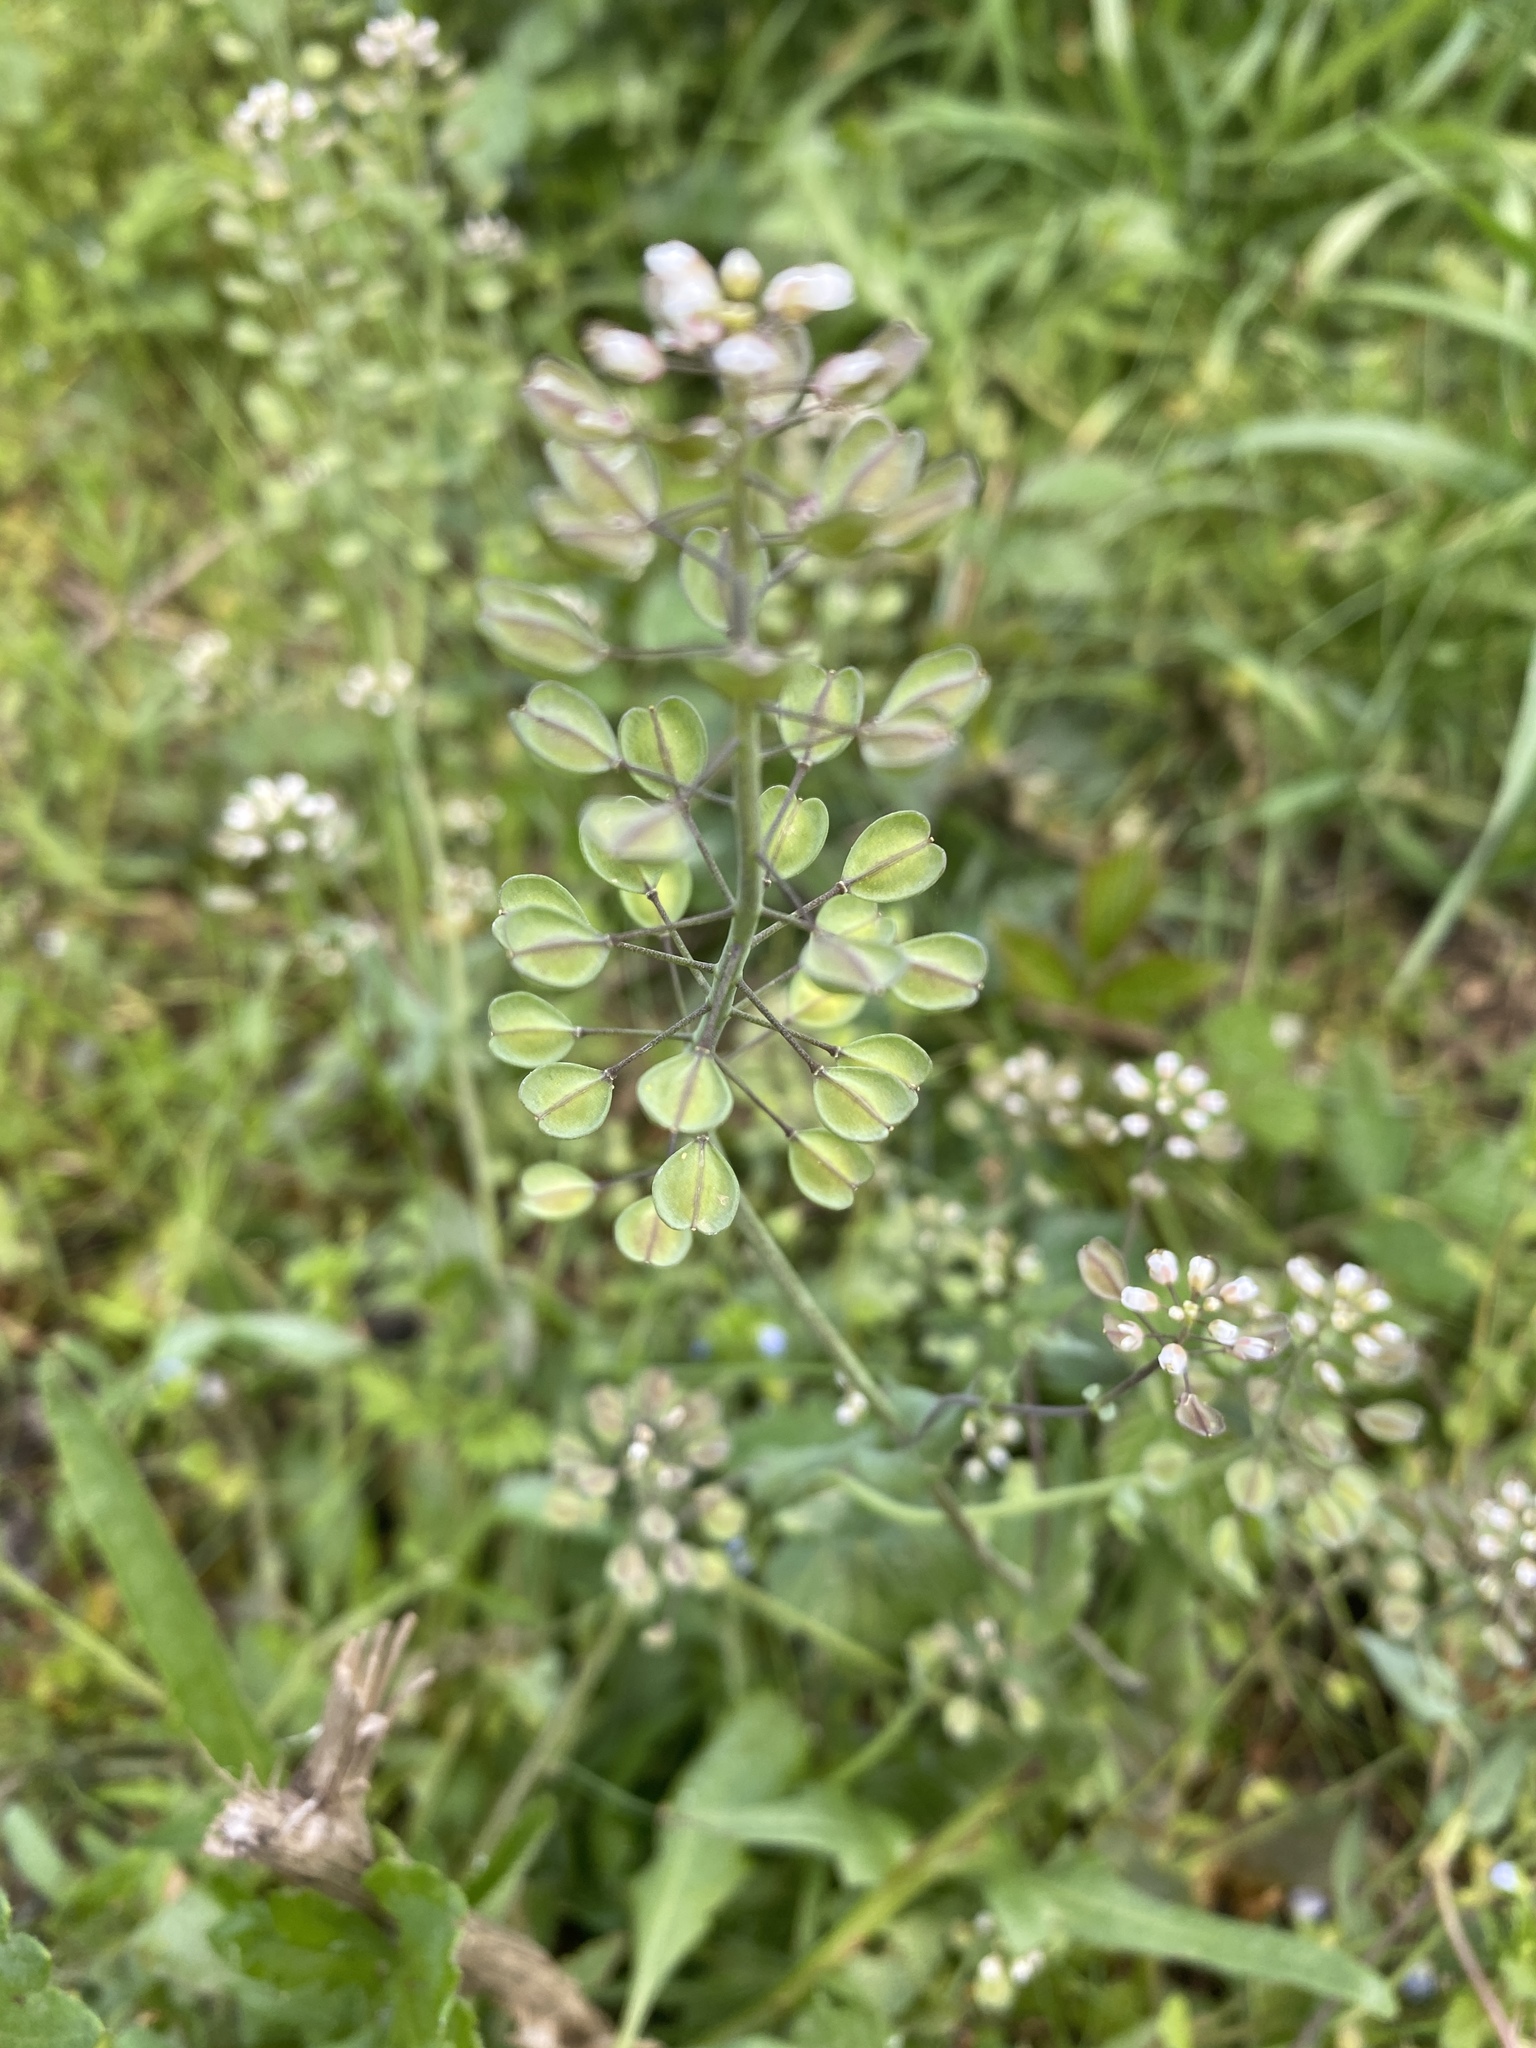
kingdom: Plantae
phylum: Tracheophyta
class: Magnoliopsida
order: Brassicales
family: Brassicaceae
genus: Noccaea
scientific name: Noccaea perfoliata
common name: Perfoliate pennycress
